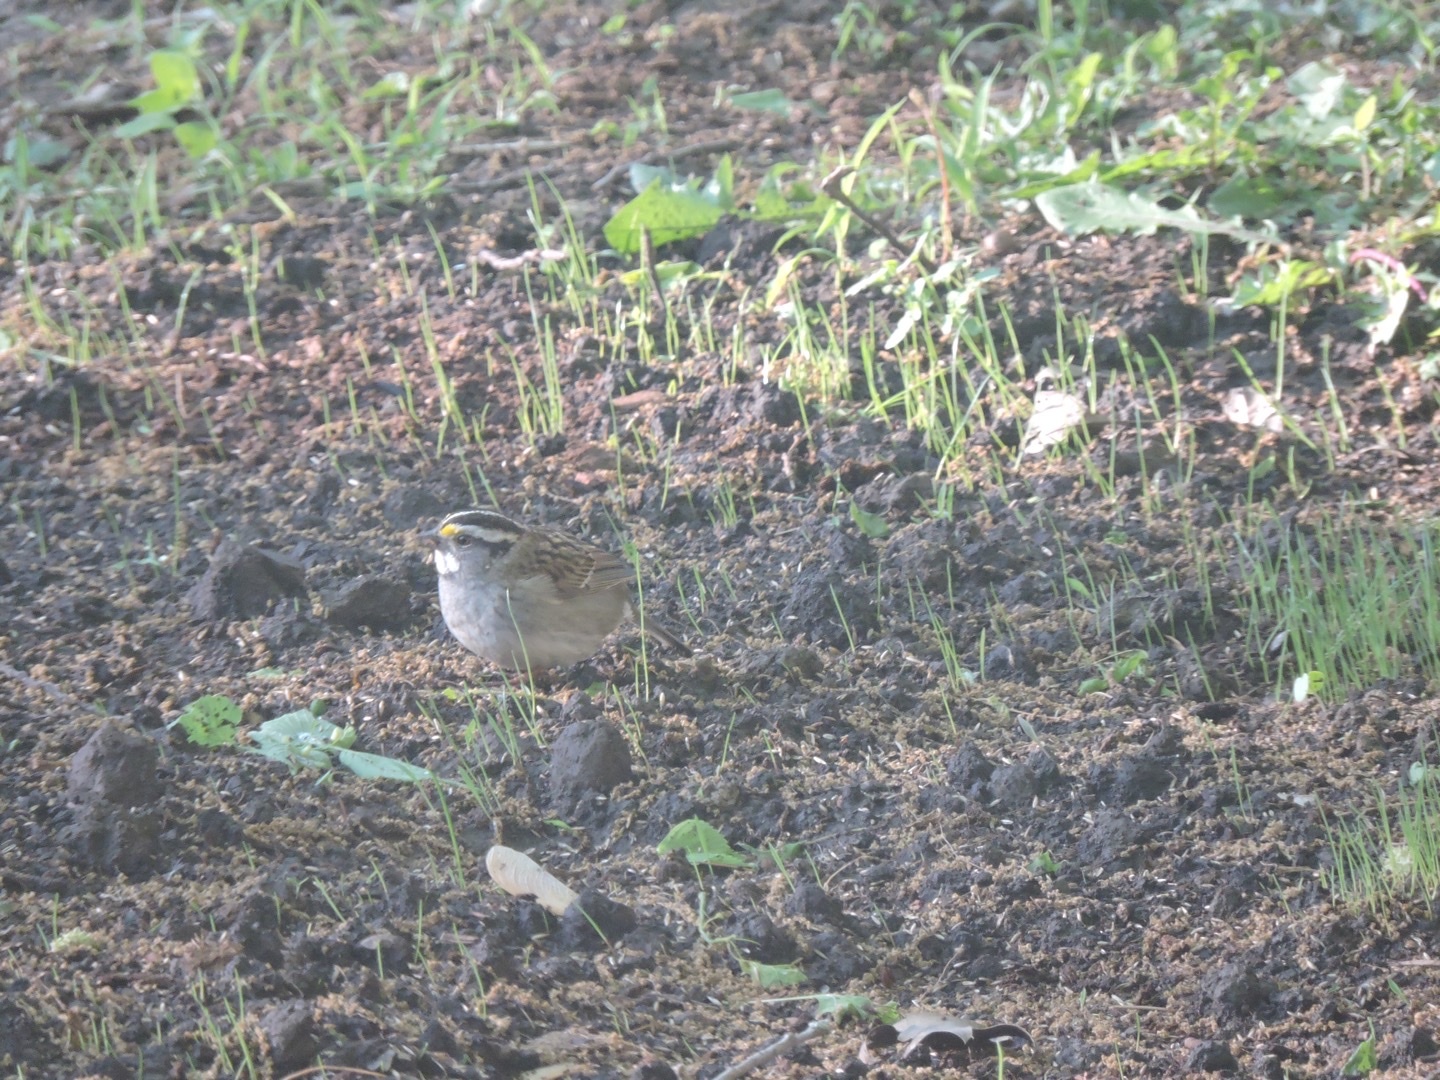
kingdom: Animalia
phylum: Chordata
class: Aves
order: Passeriformes
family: Passerellidae
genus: Zonotrichia
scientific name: Zonotrichia albicollis
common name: White-throated sparrow
